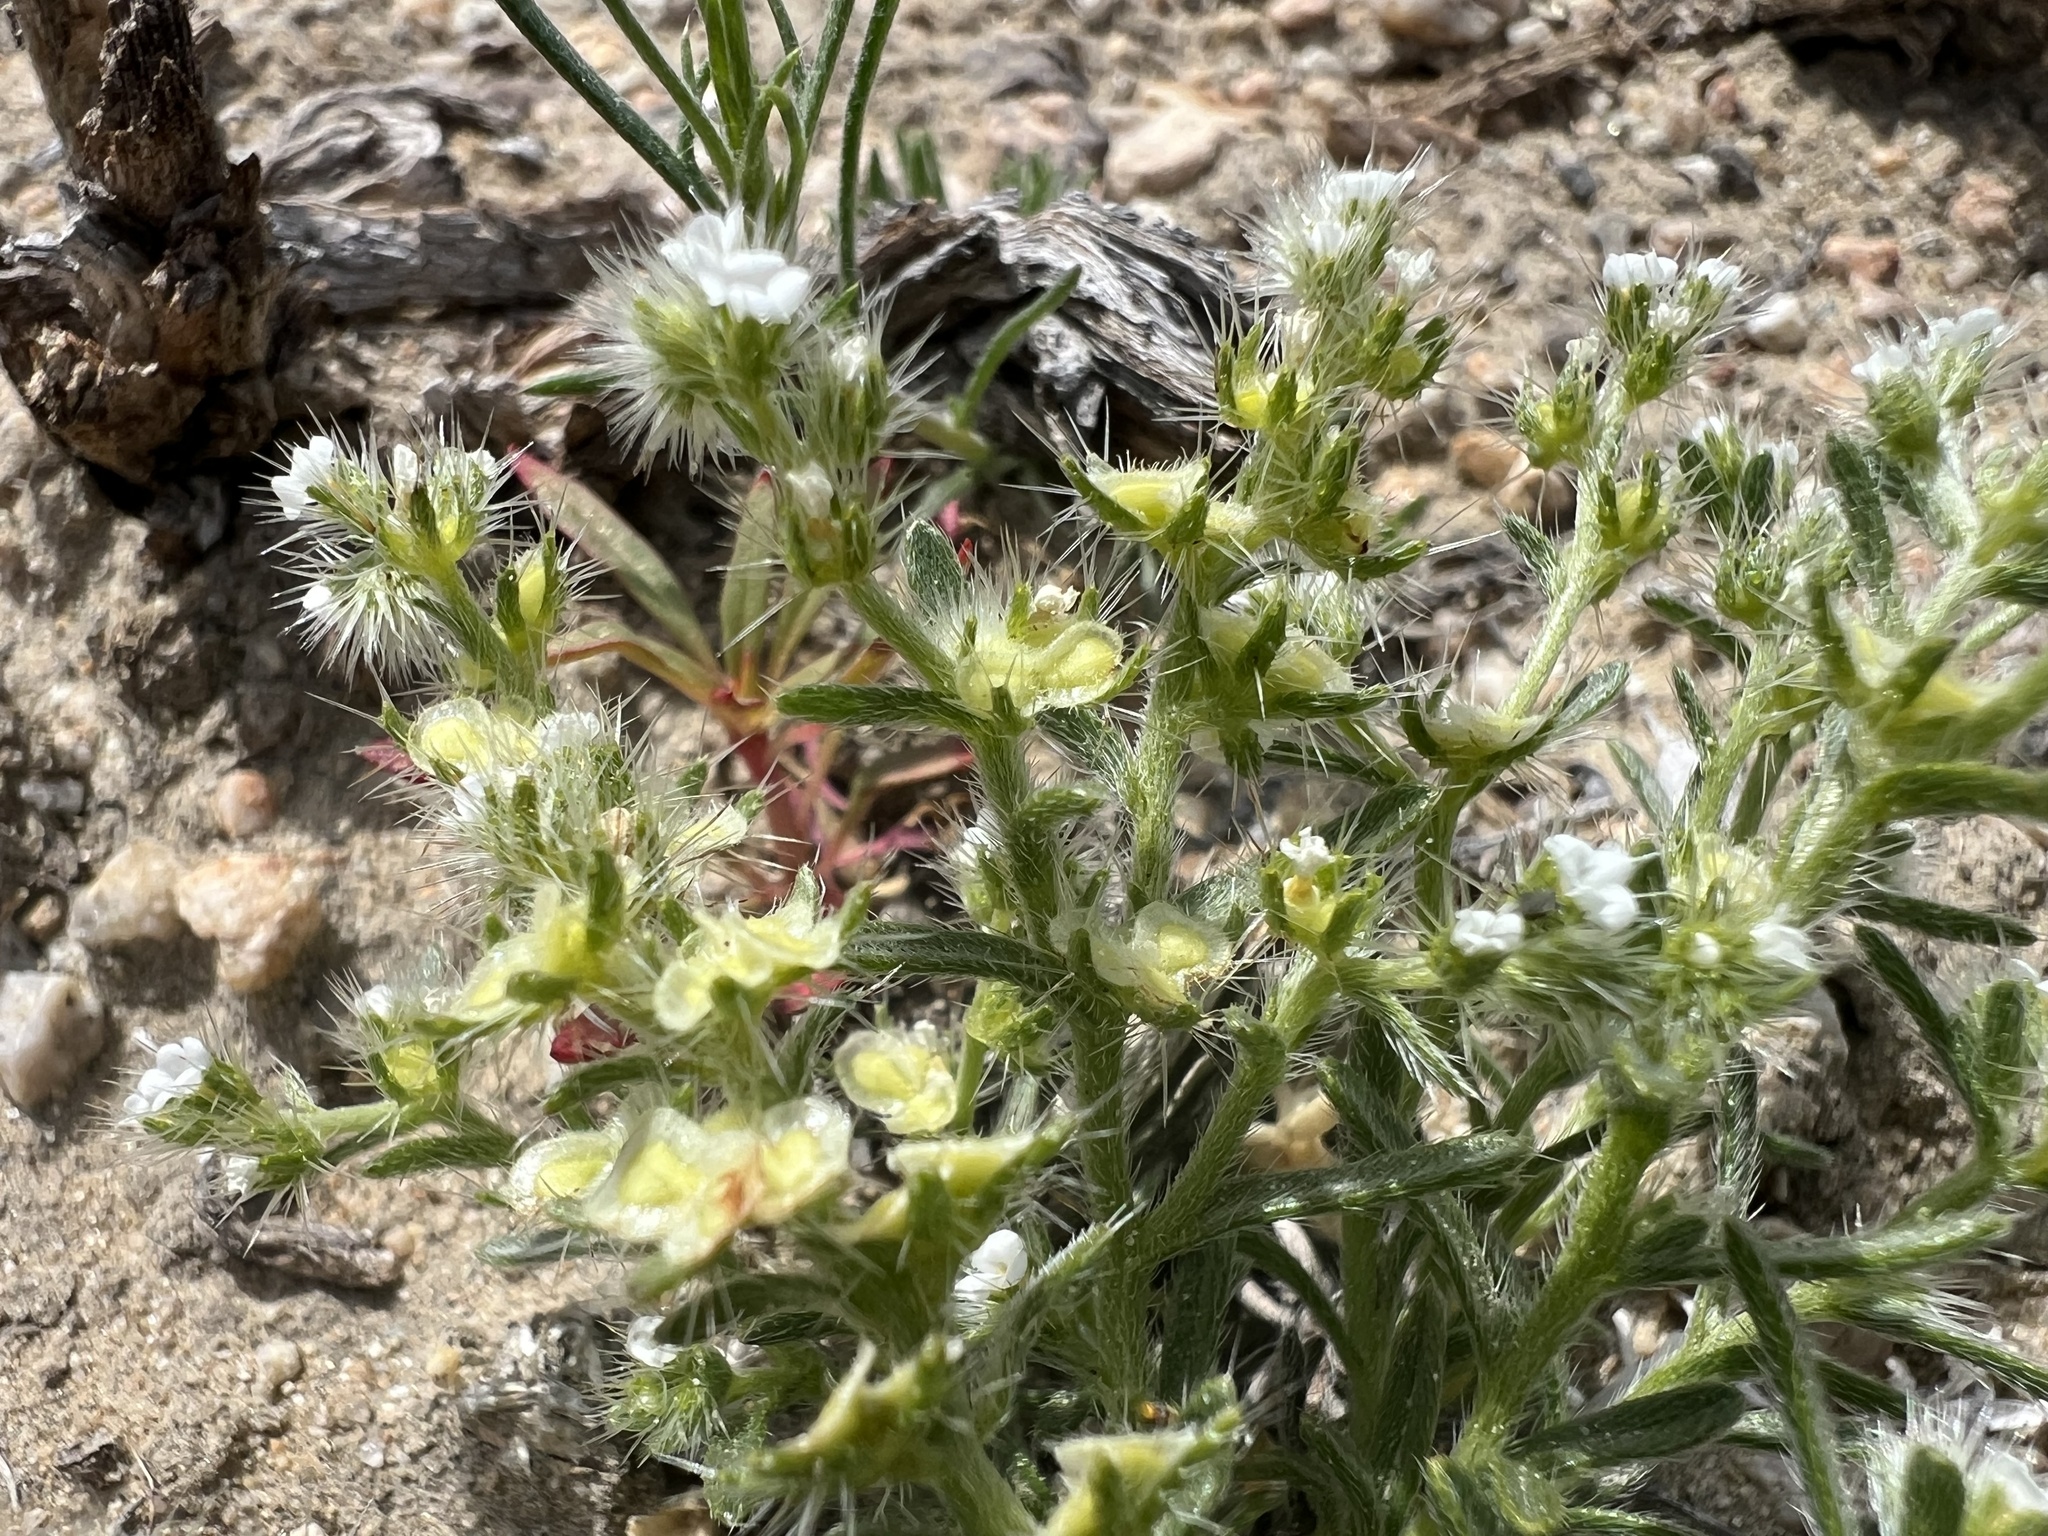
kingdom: Plantae
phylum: Tracheophyta
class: Magnoliopsida
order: Boraginales
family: Boraginaceae
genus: Pectocarya
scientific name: Pectocarya setosa
